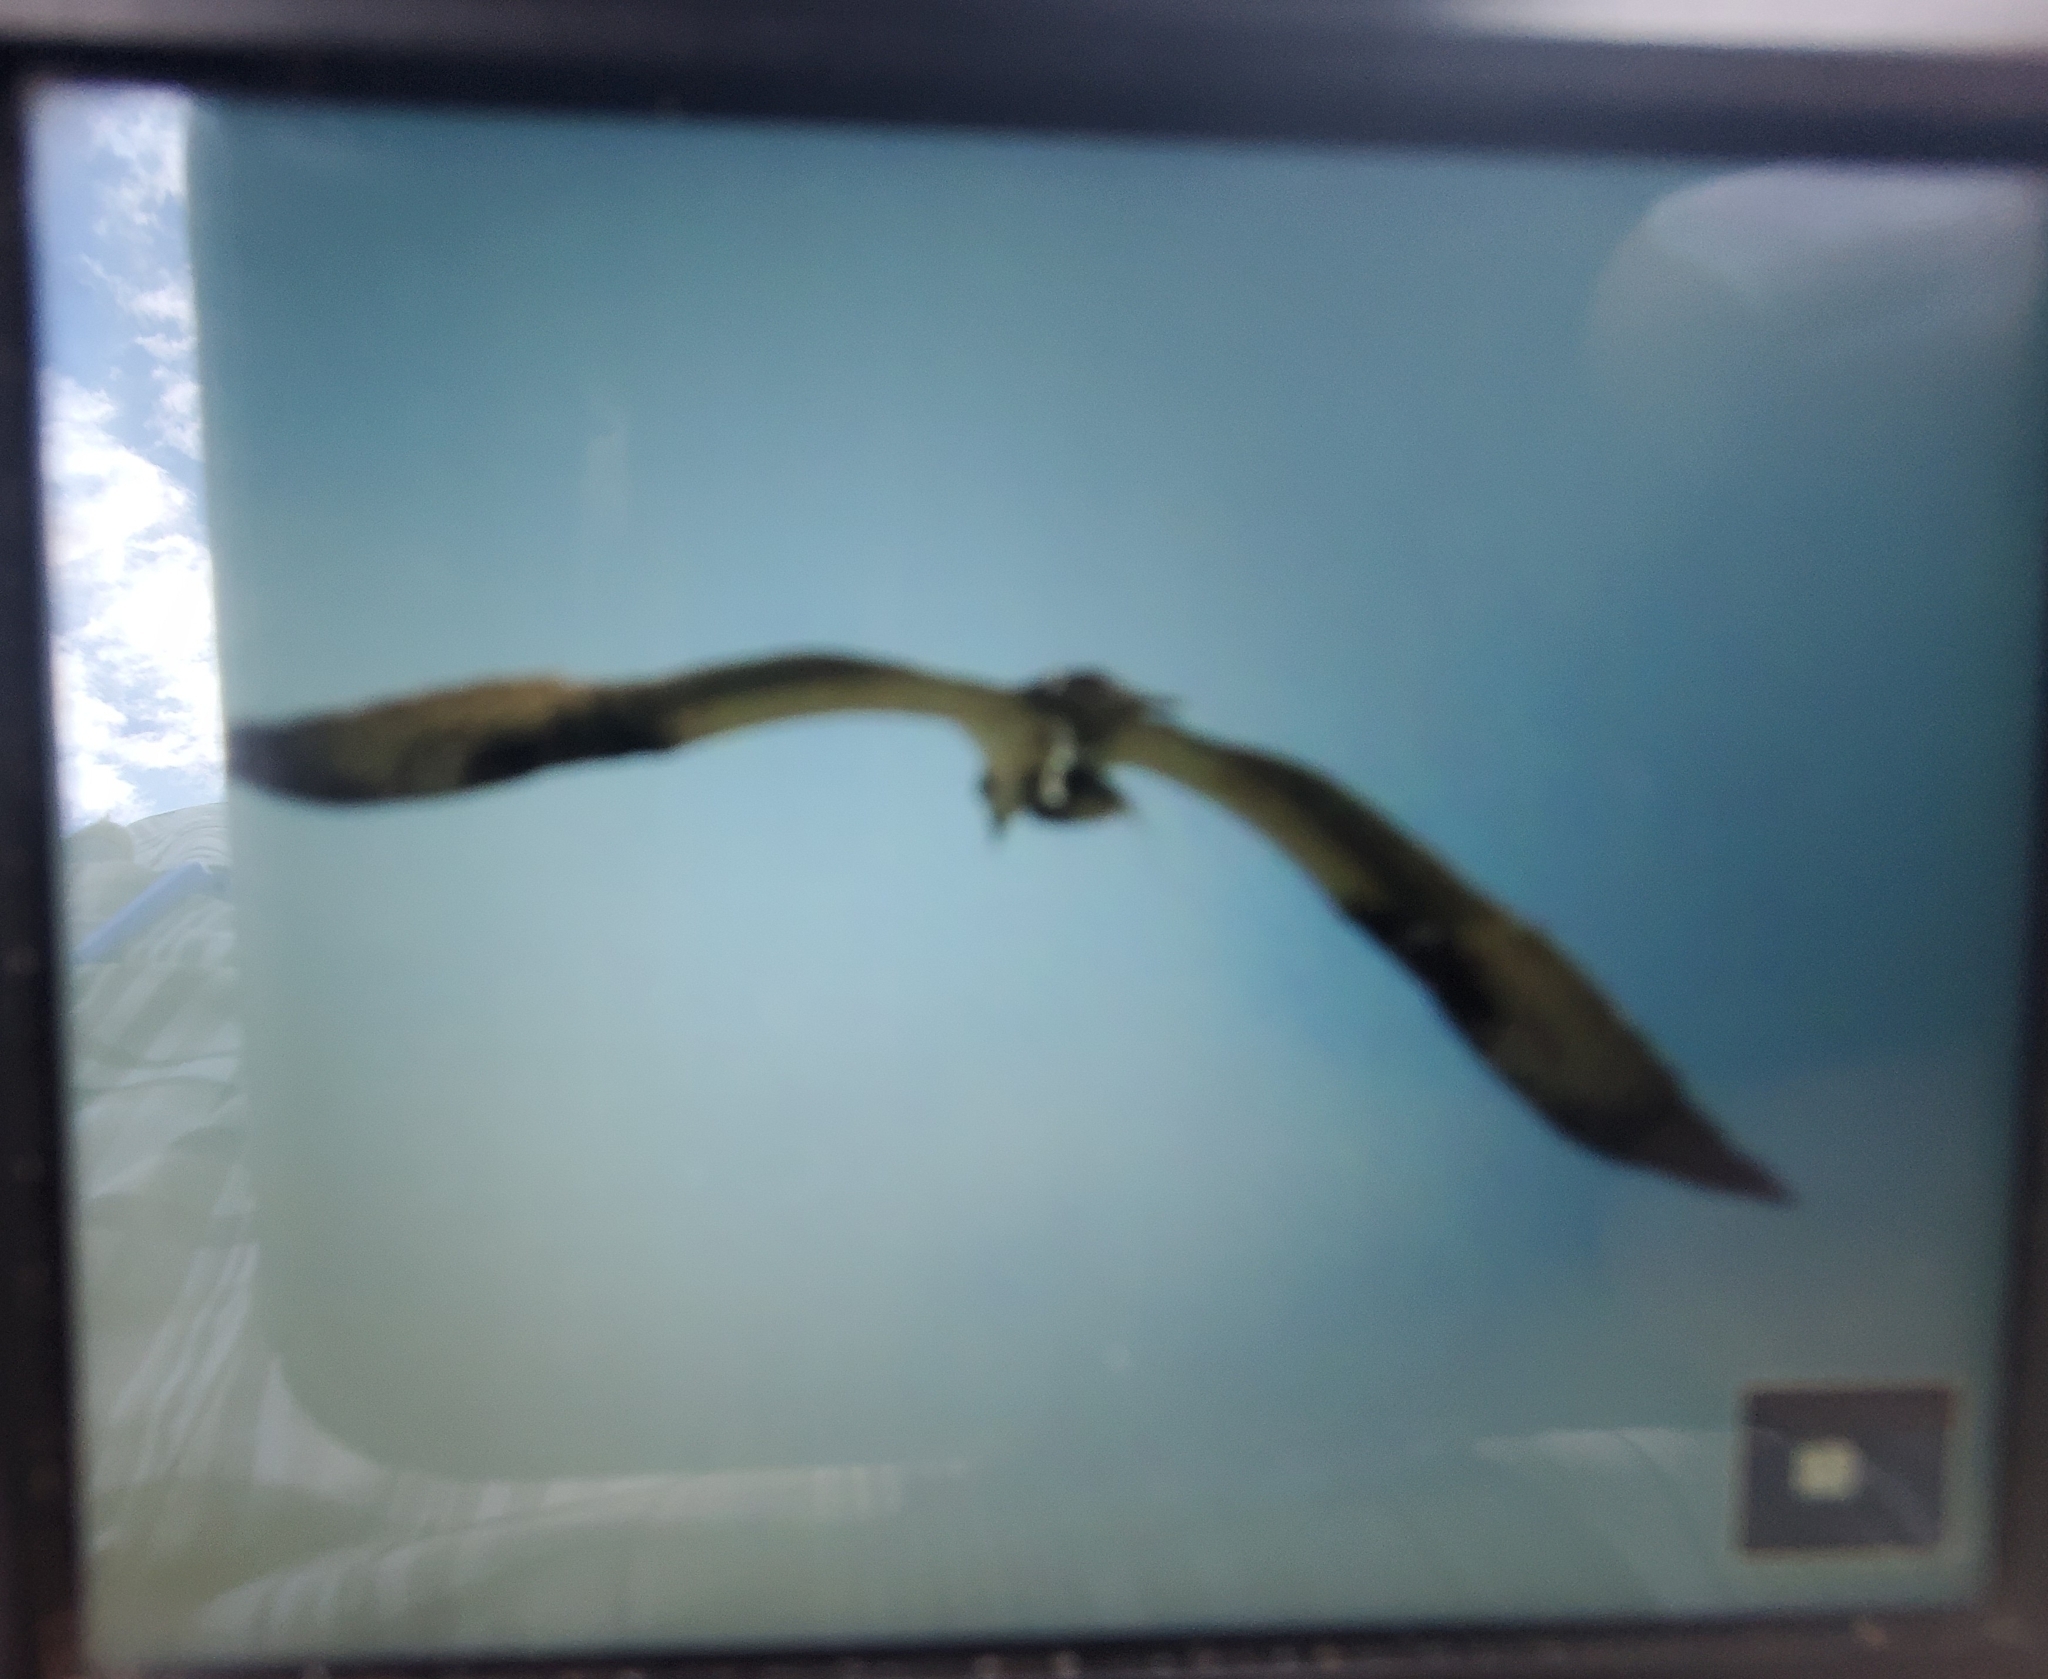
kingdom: Animalia
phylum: Chordata
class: Aves
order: Accipitriformes
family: Pandionidae
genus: Pandion
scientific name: Pandion haliaetus
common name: Osprey
